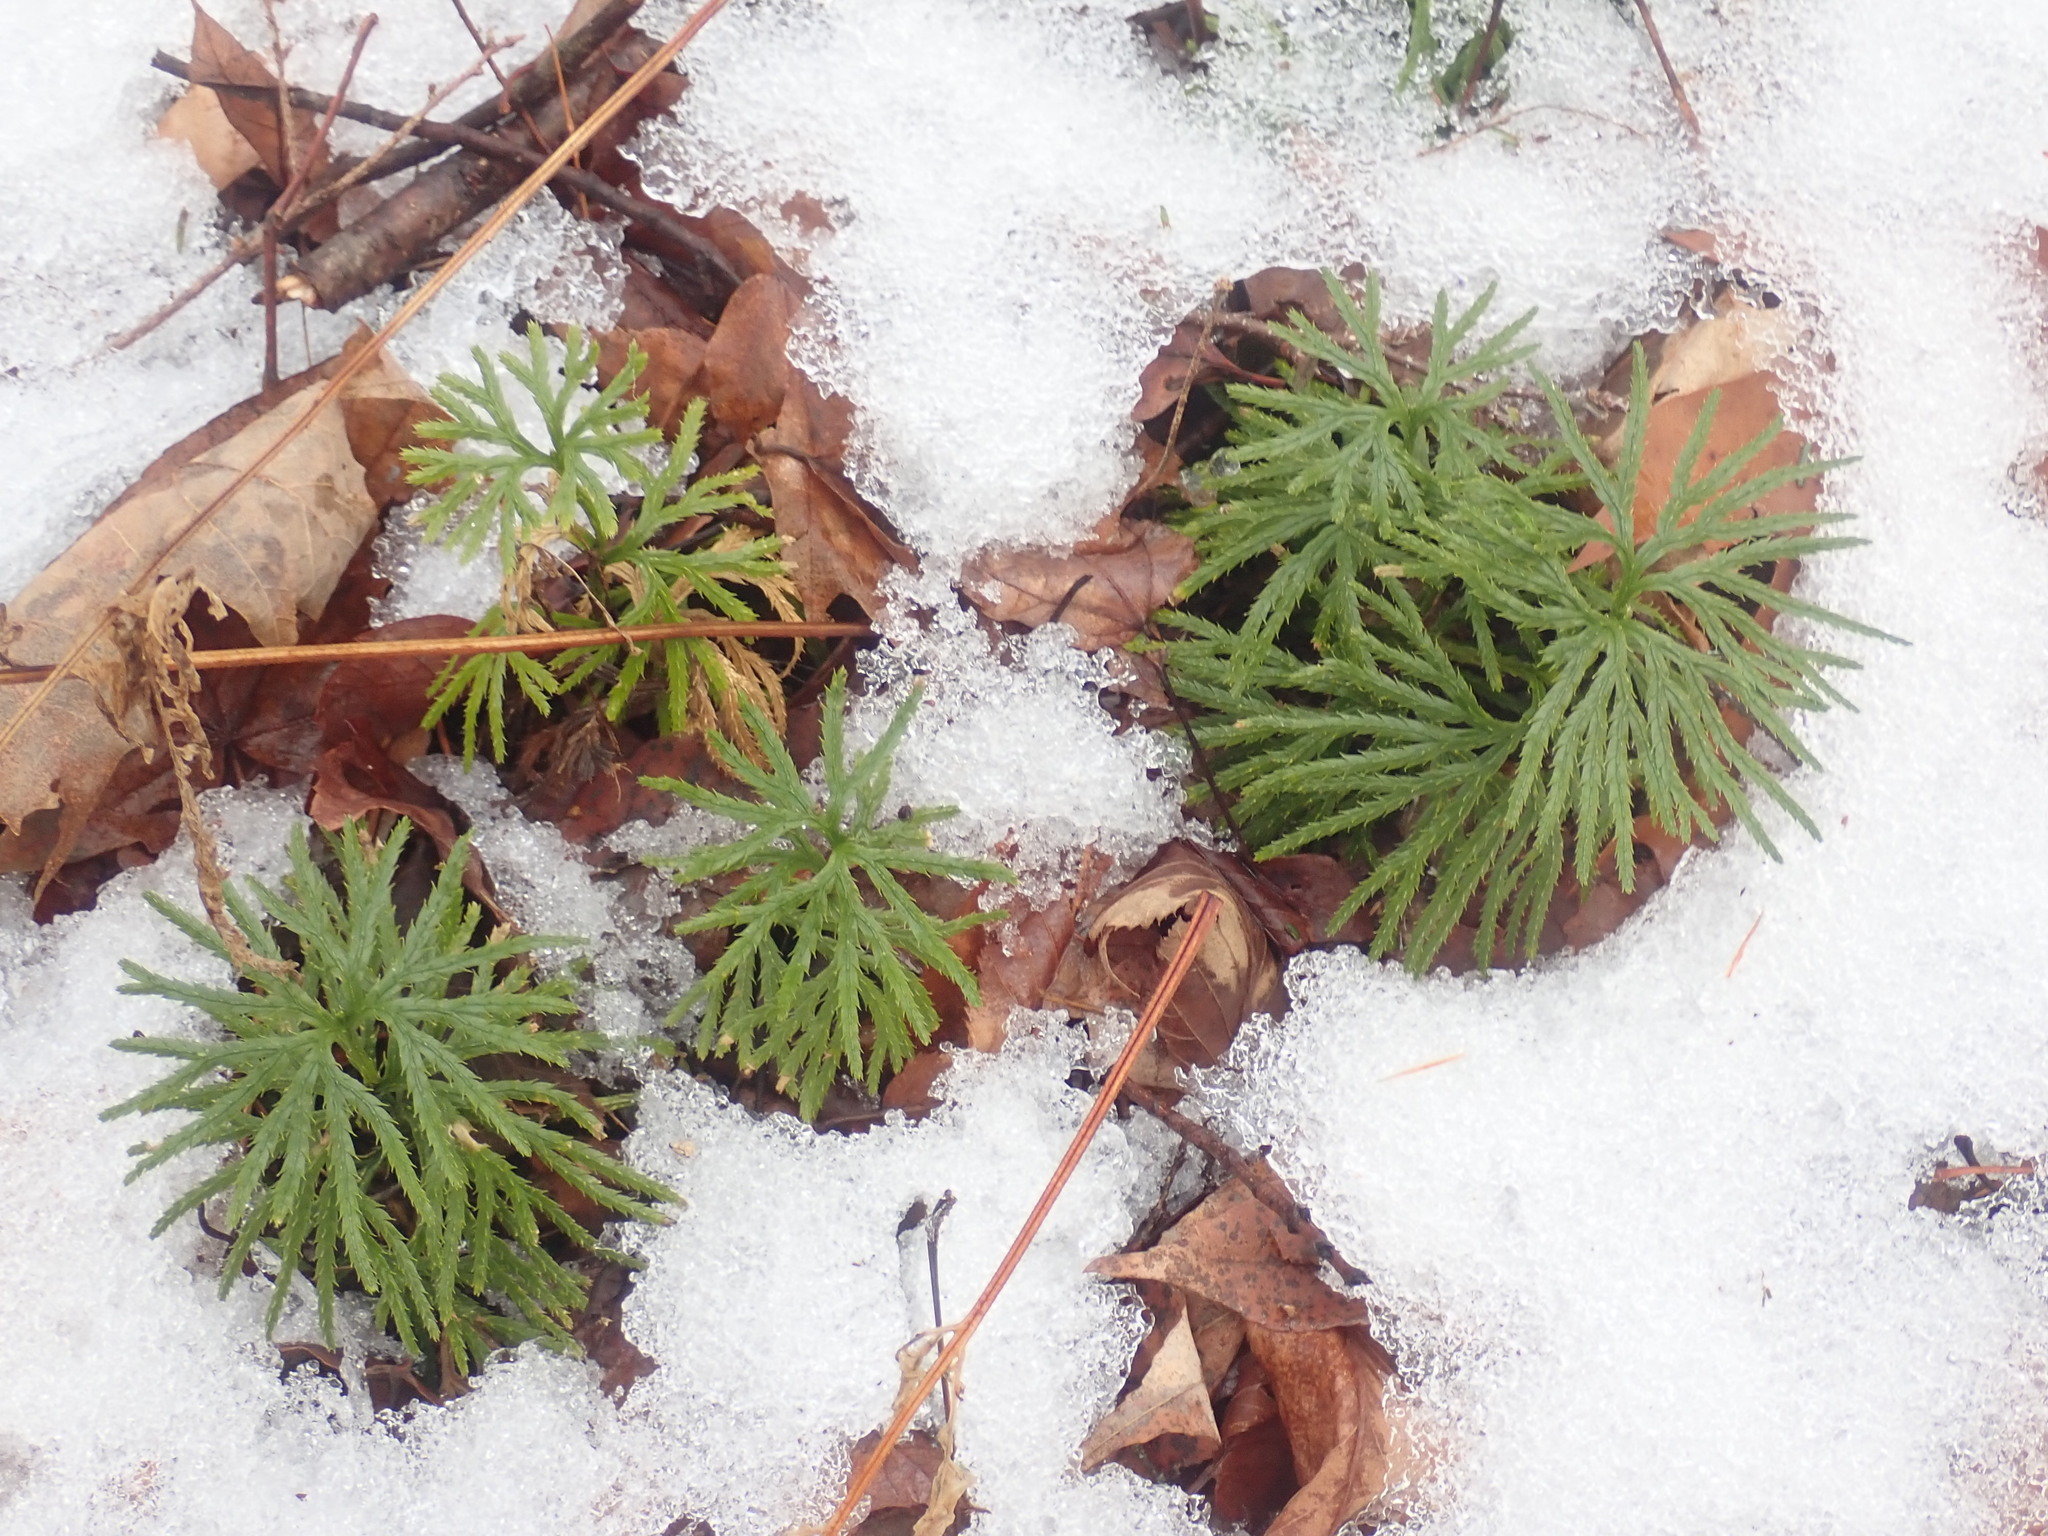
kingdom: Plantae
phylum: Tracheophyta
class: Lycopodiopsida
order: Lycopodiales
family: Lycopodiaceae
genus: Diphasiastrum
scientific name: Diphasiastrum digitatum
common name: Southern running-pine
